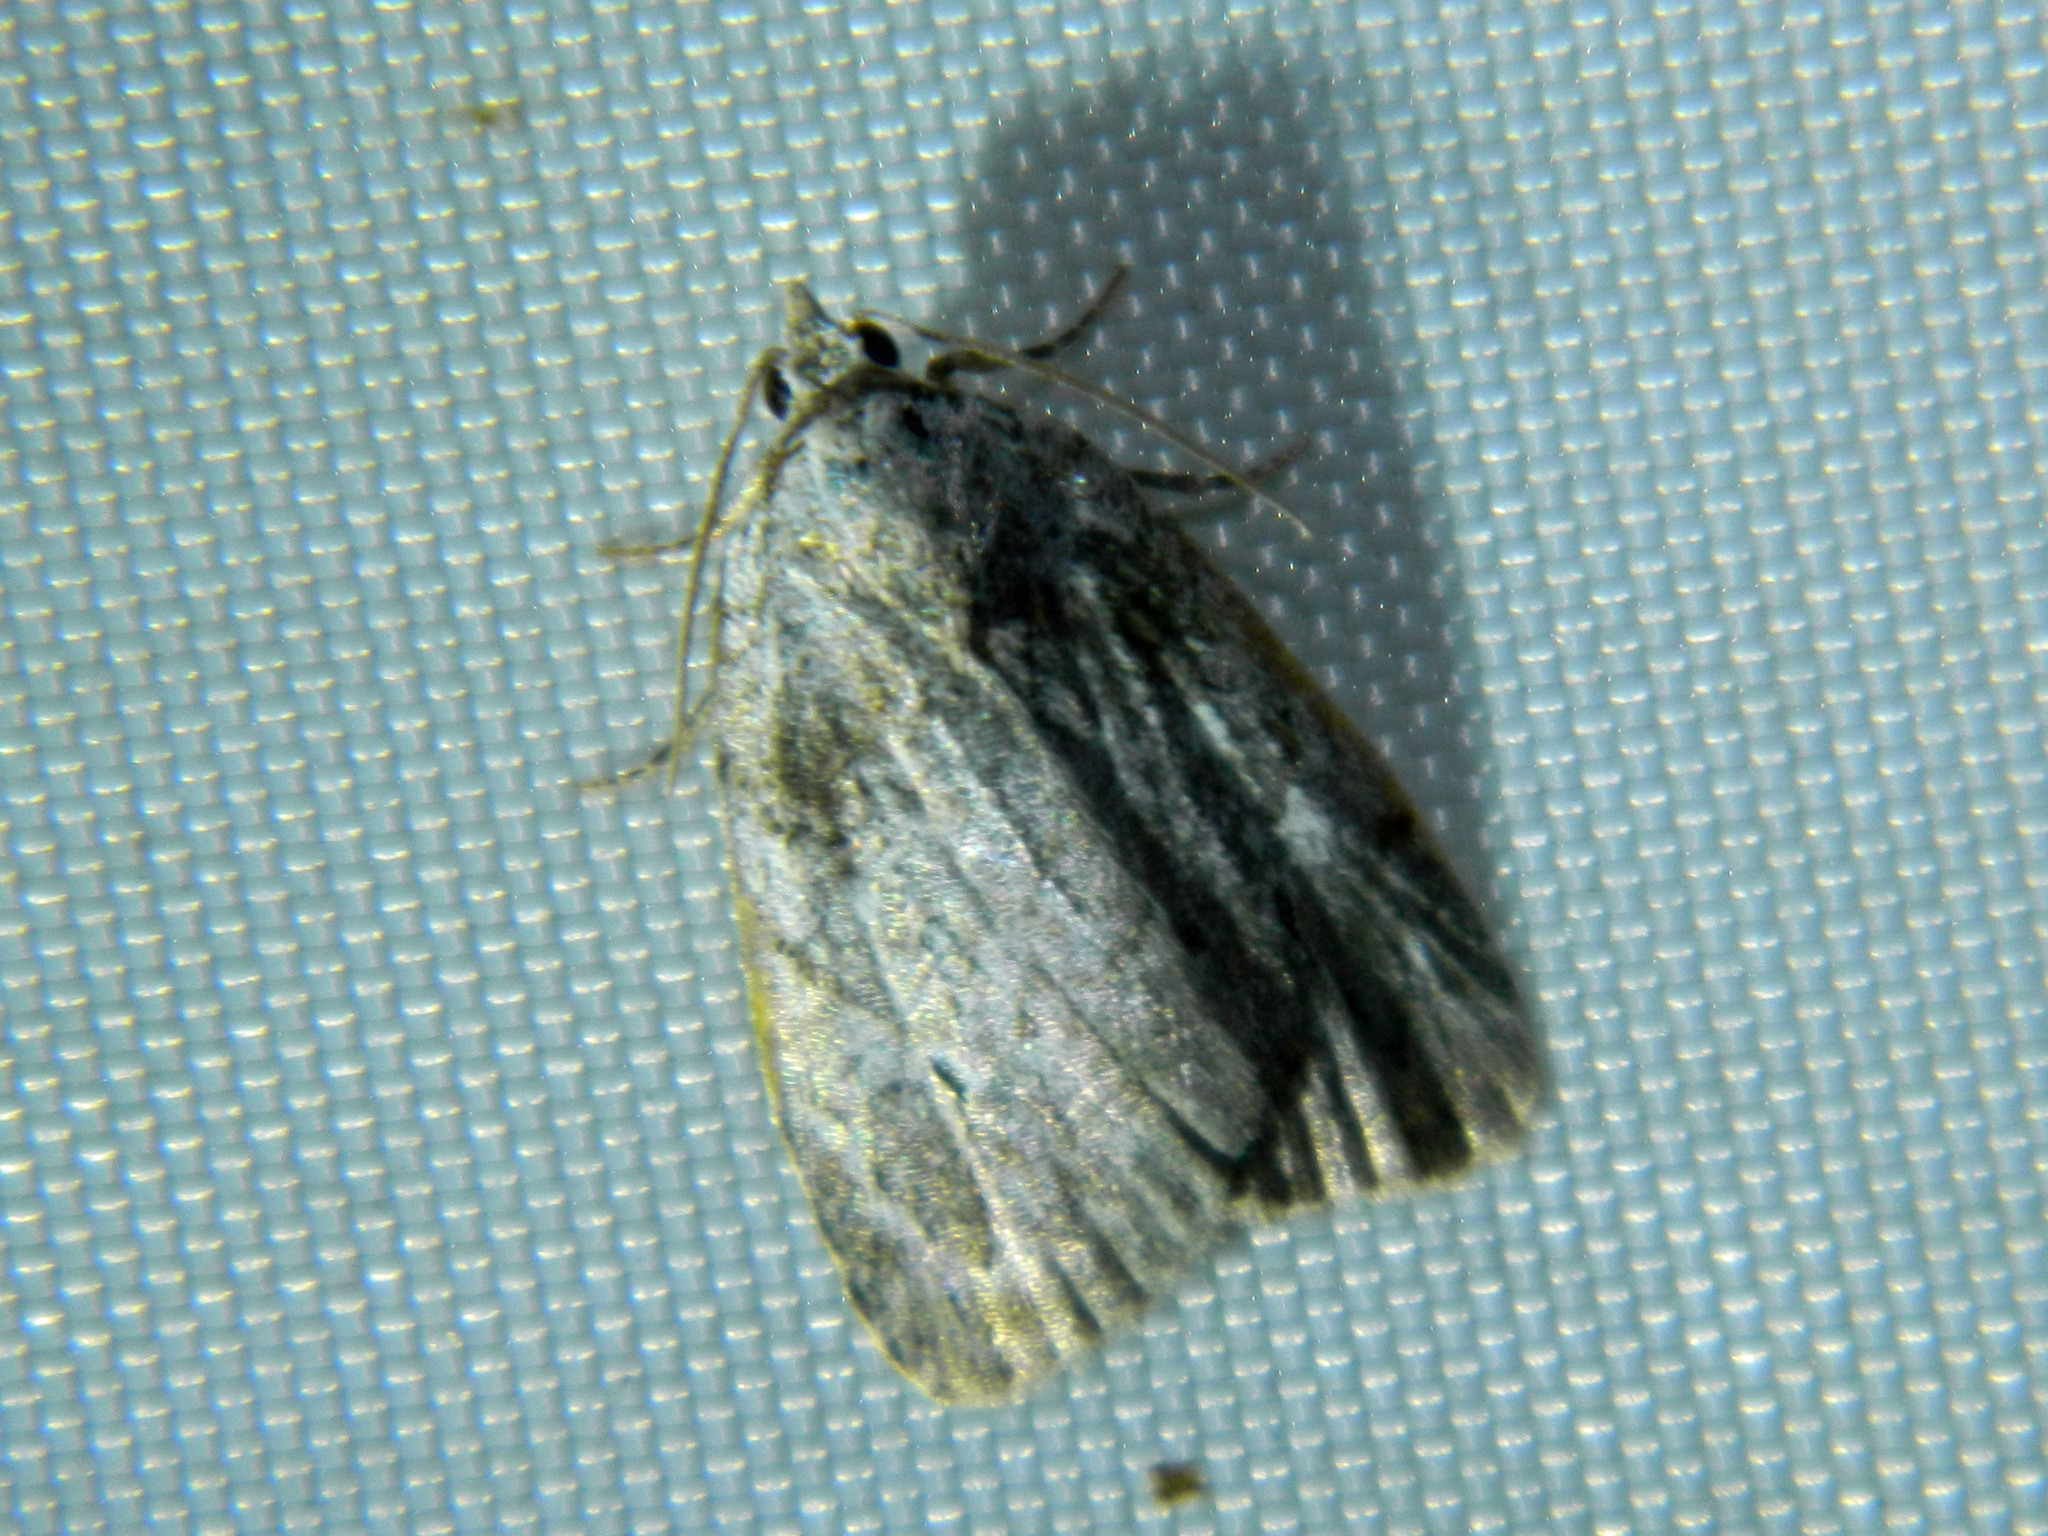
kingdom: Animalia
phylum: Arthropoda
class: Insecta
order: Lepidoptera
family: Noctuidae
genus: Balsa
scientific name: Balsa labecula
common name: White-blotched balsa moth
